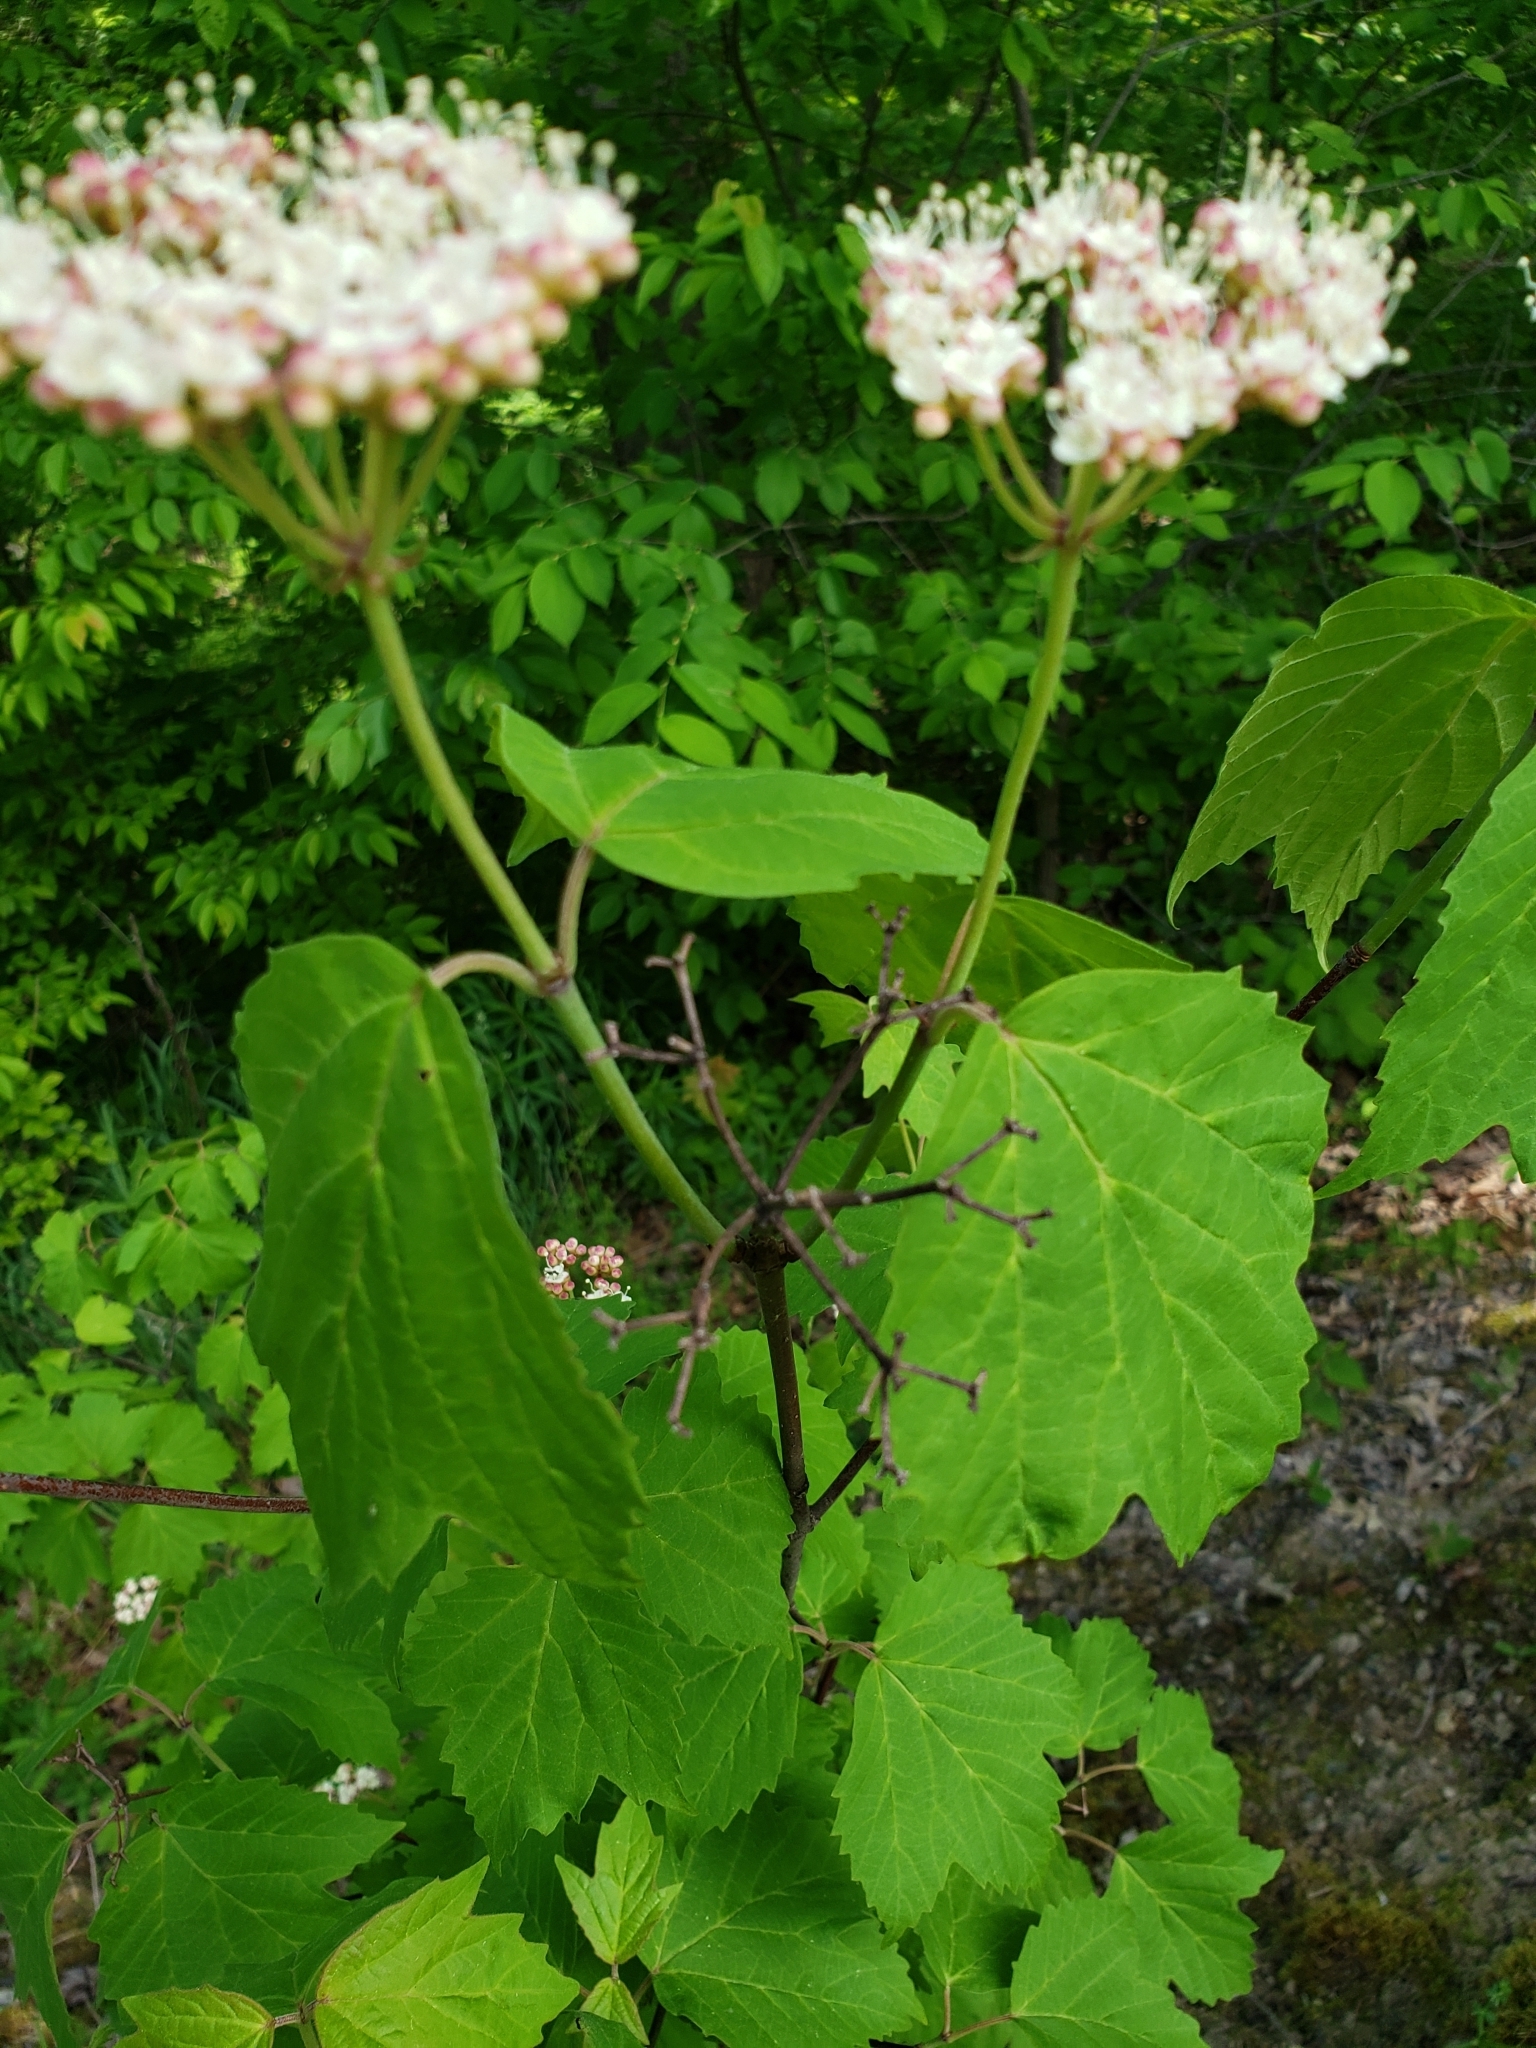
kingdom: Plantae
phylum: Tracheophyta
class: Magnoliopsida
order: Dipsacales
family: Viburnaceae
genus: Viburnum
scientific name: Viburnum acerifolium
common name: Dockmackie
